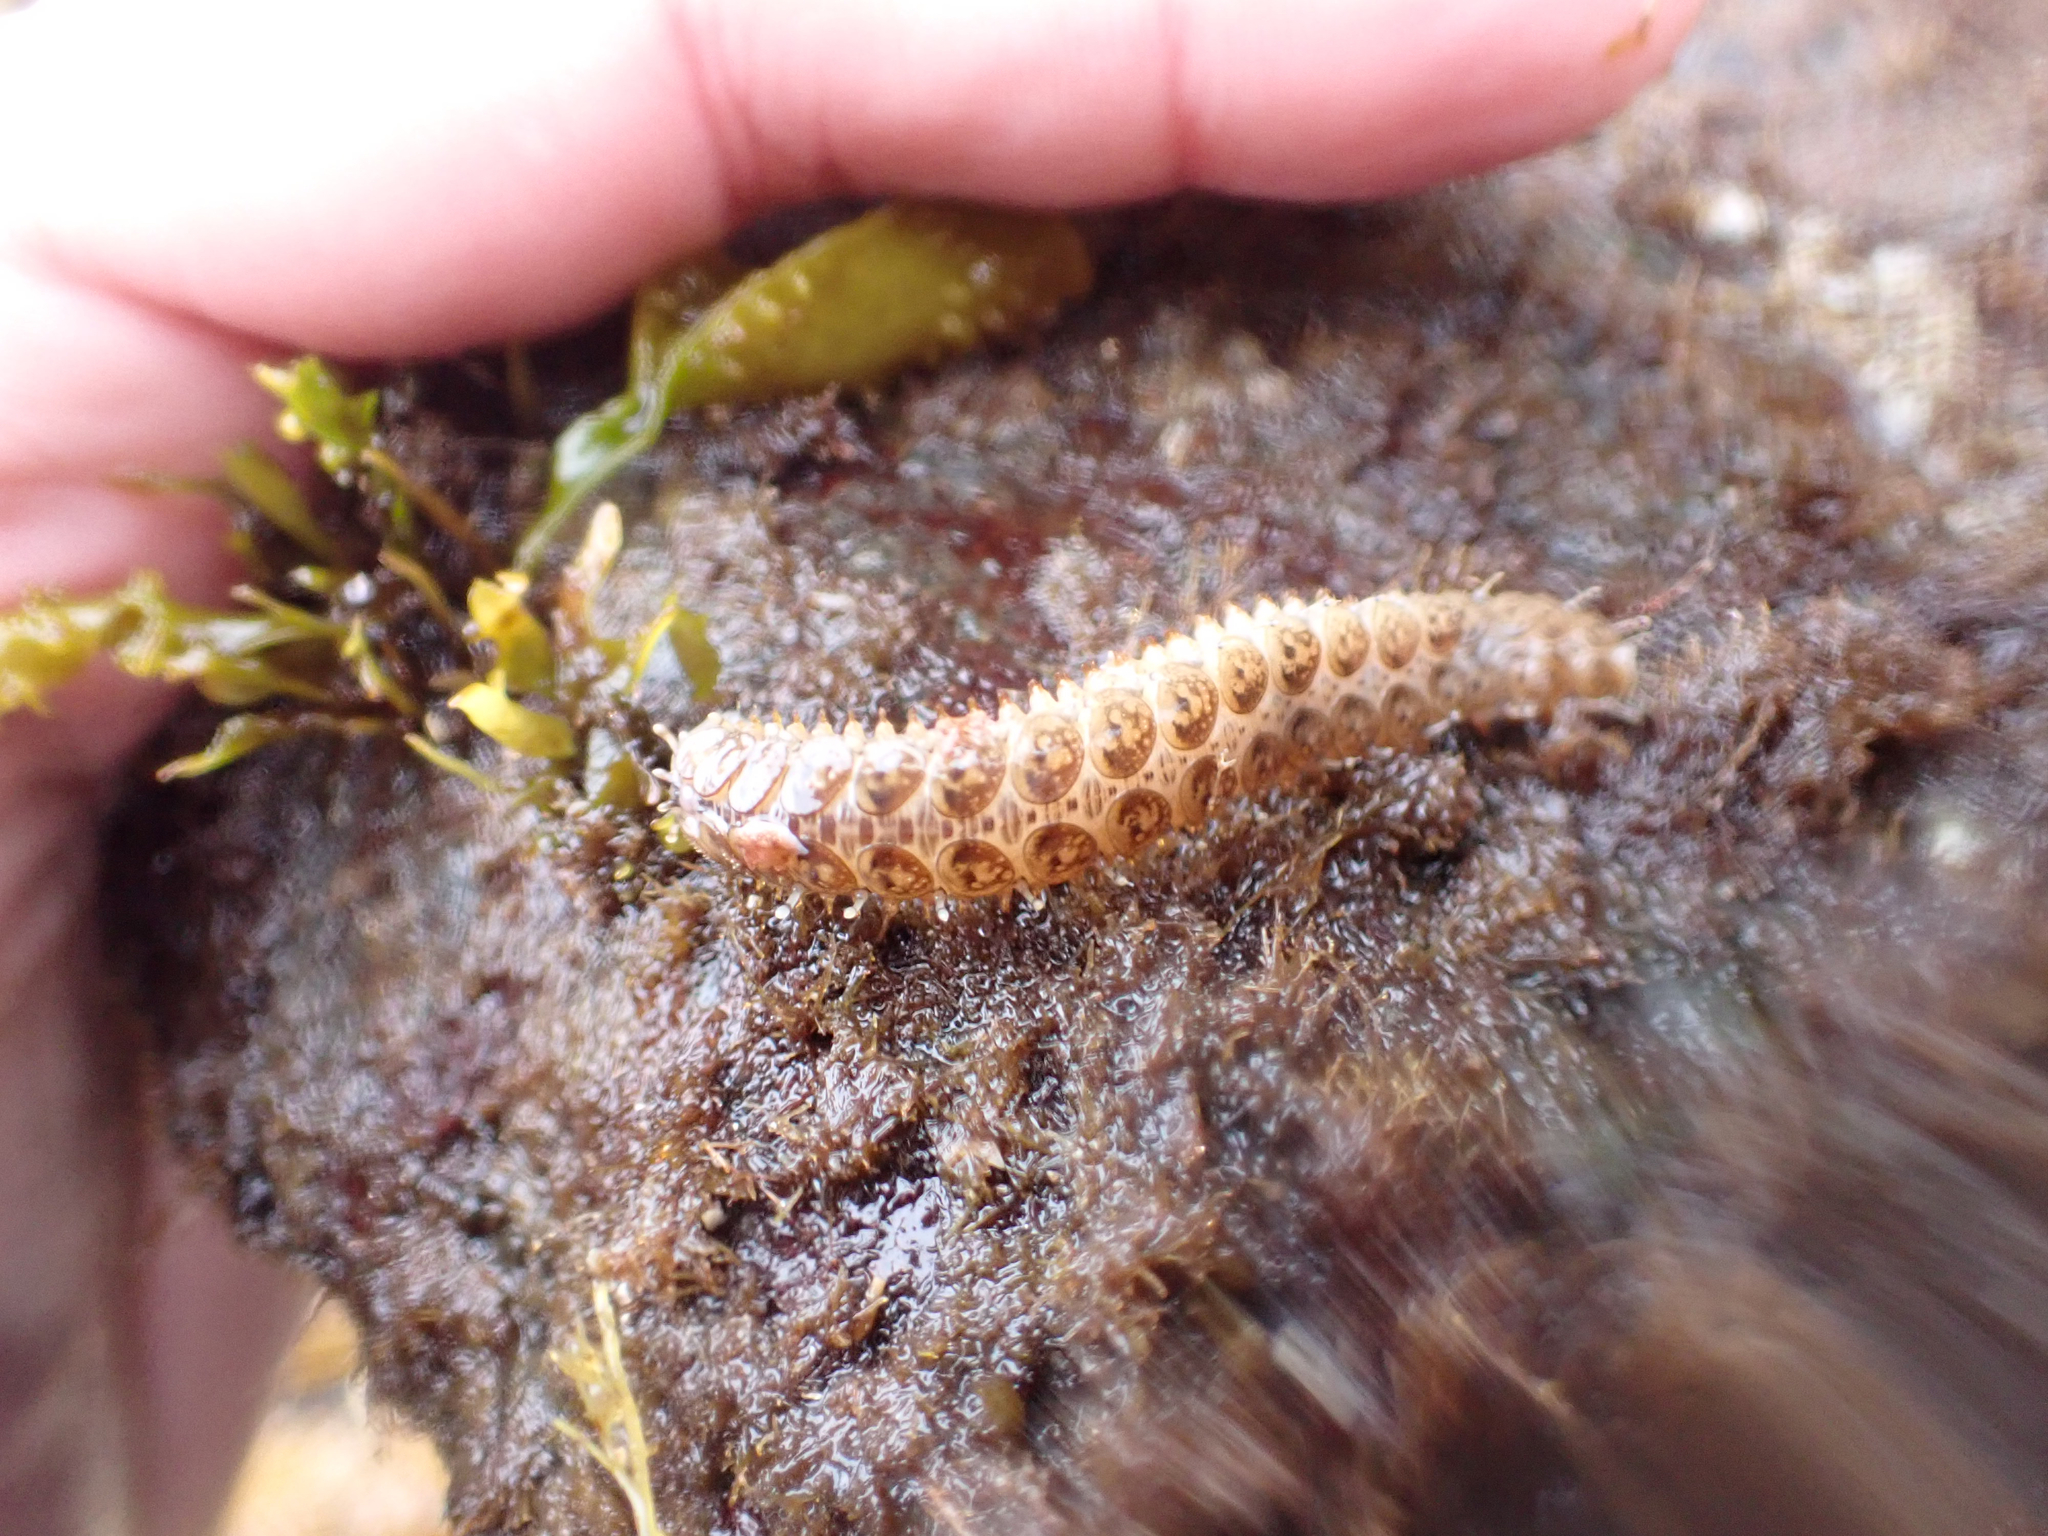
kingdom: Animalia
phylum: Annelida
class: Polychaeta
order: Phyllodocida
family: Polynoidae
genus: Halosydna
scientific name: Halosydna brevisetosa
